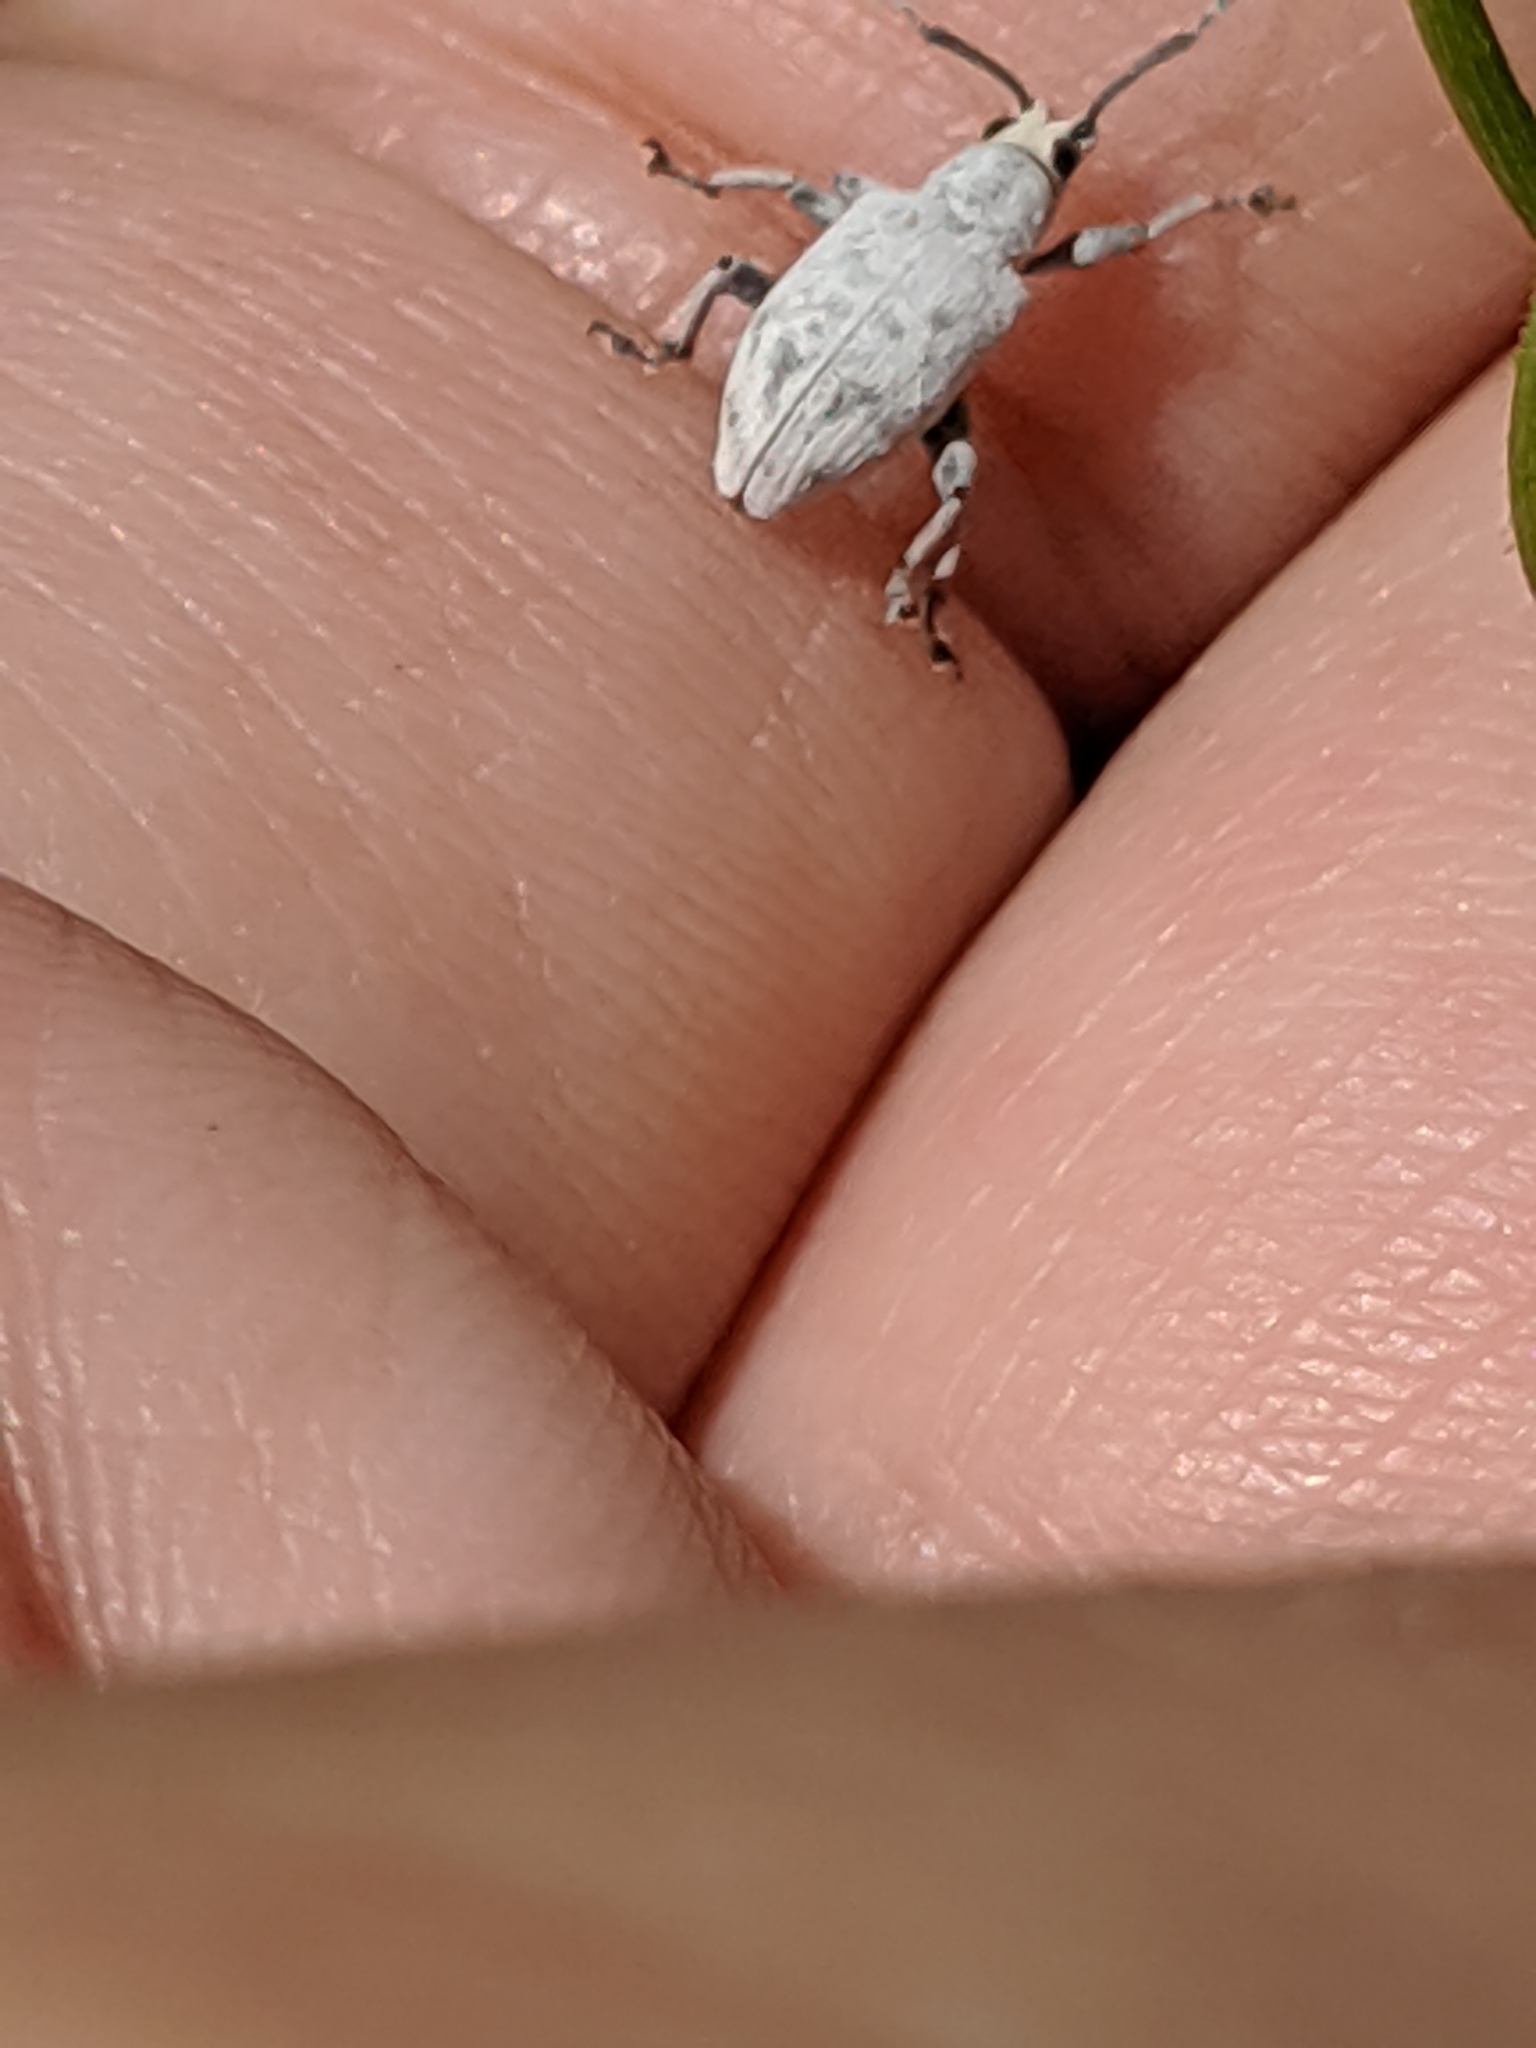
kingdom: Animalia
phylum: Arthropoda
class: Insecta
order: Coleoptera
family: Curculionidae
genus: Myllocerus
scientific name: Myllocerus undecimpustulatus
